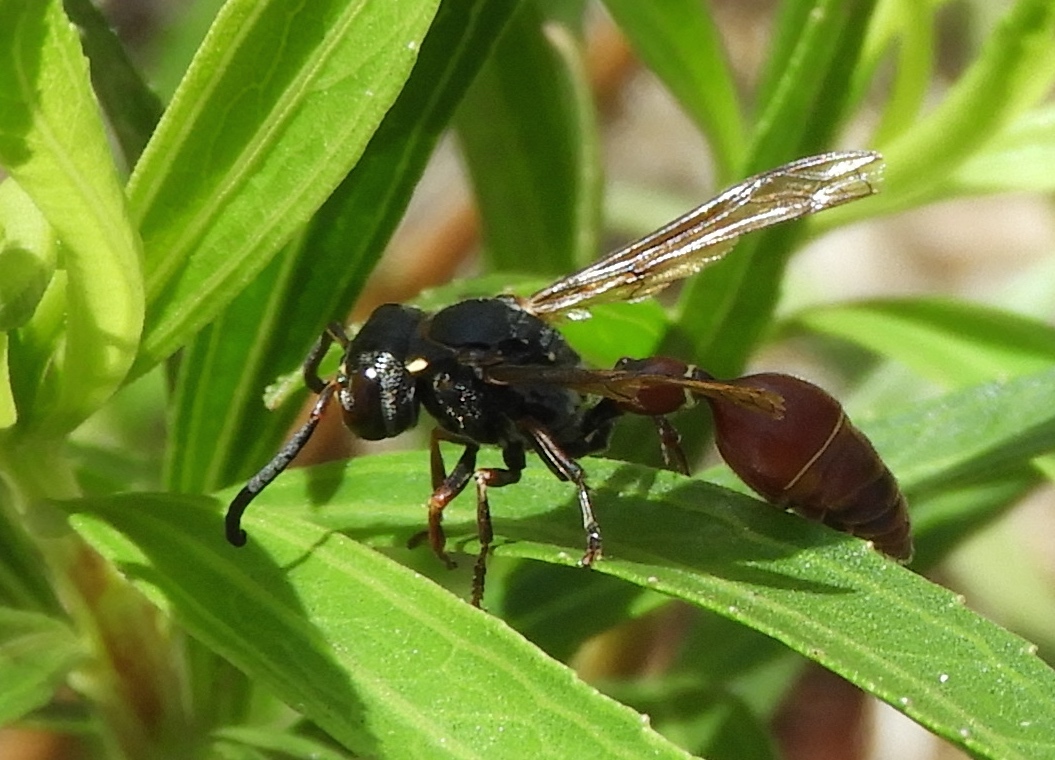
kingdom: Animalia
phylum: Arthropoda
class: Insecta
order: Hymenoptera
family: Eumenidae
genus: Zethus
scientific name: Zethus analis
